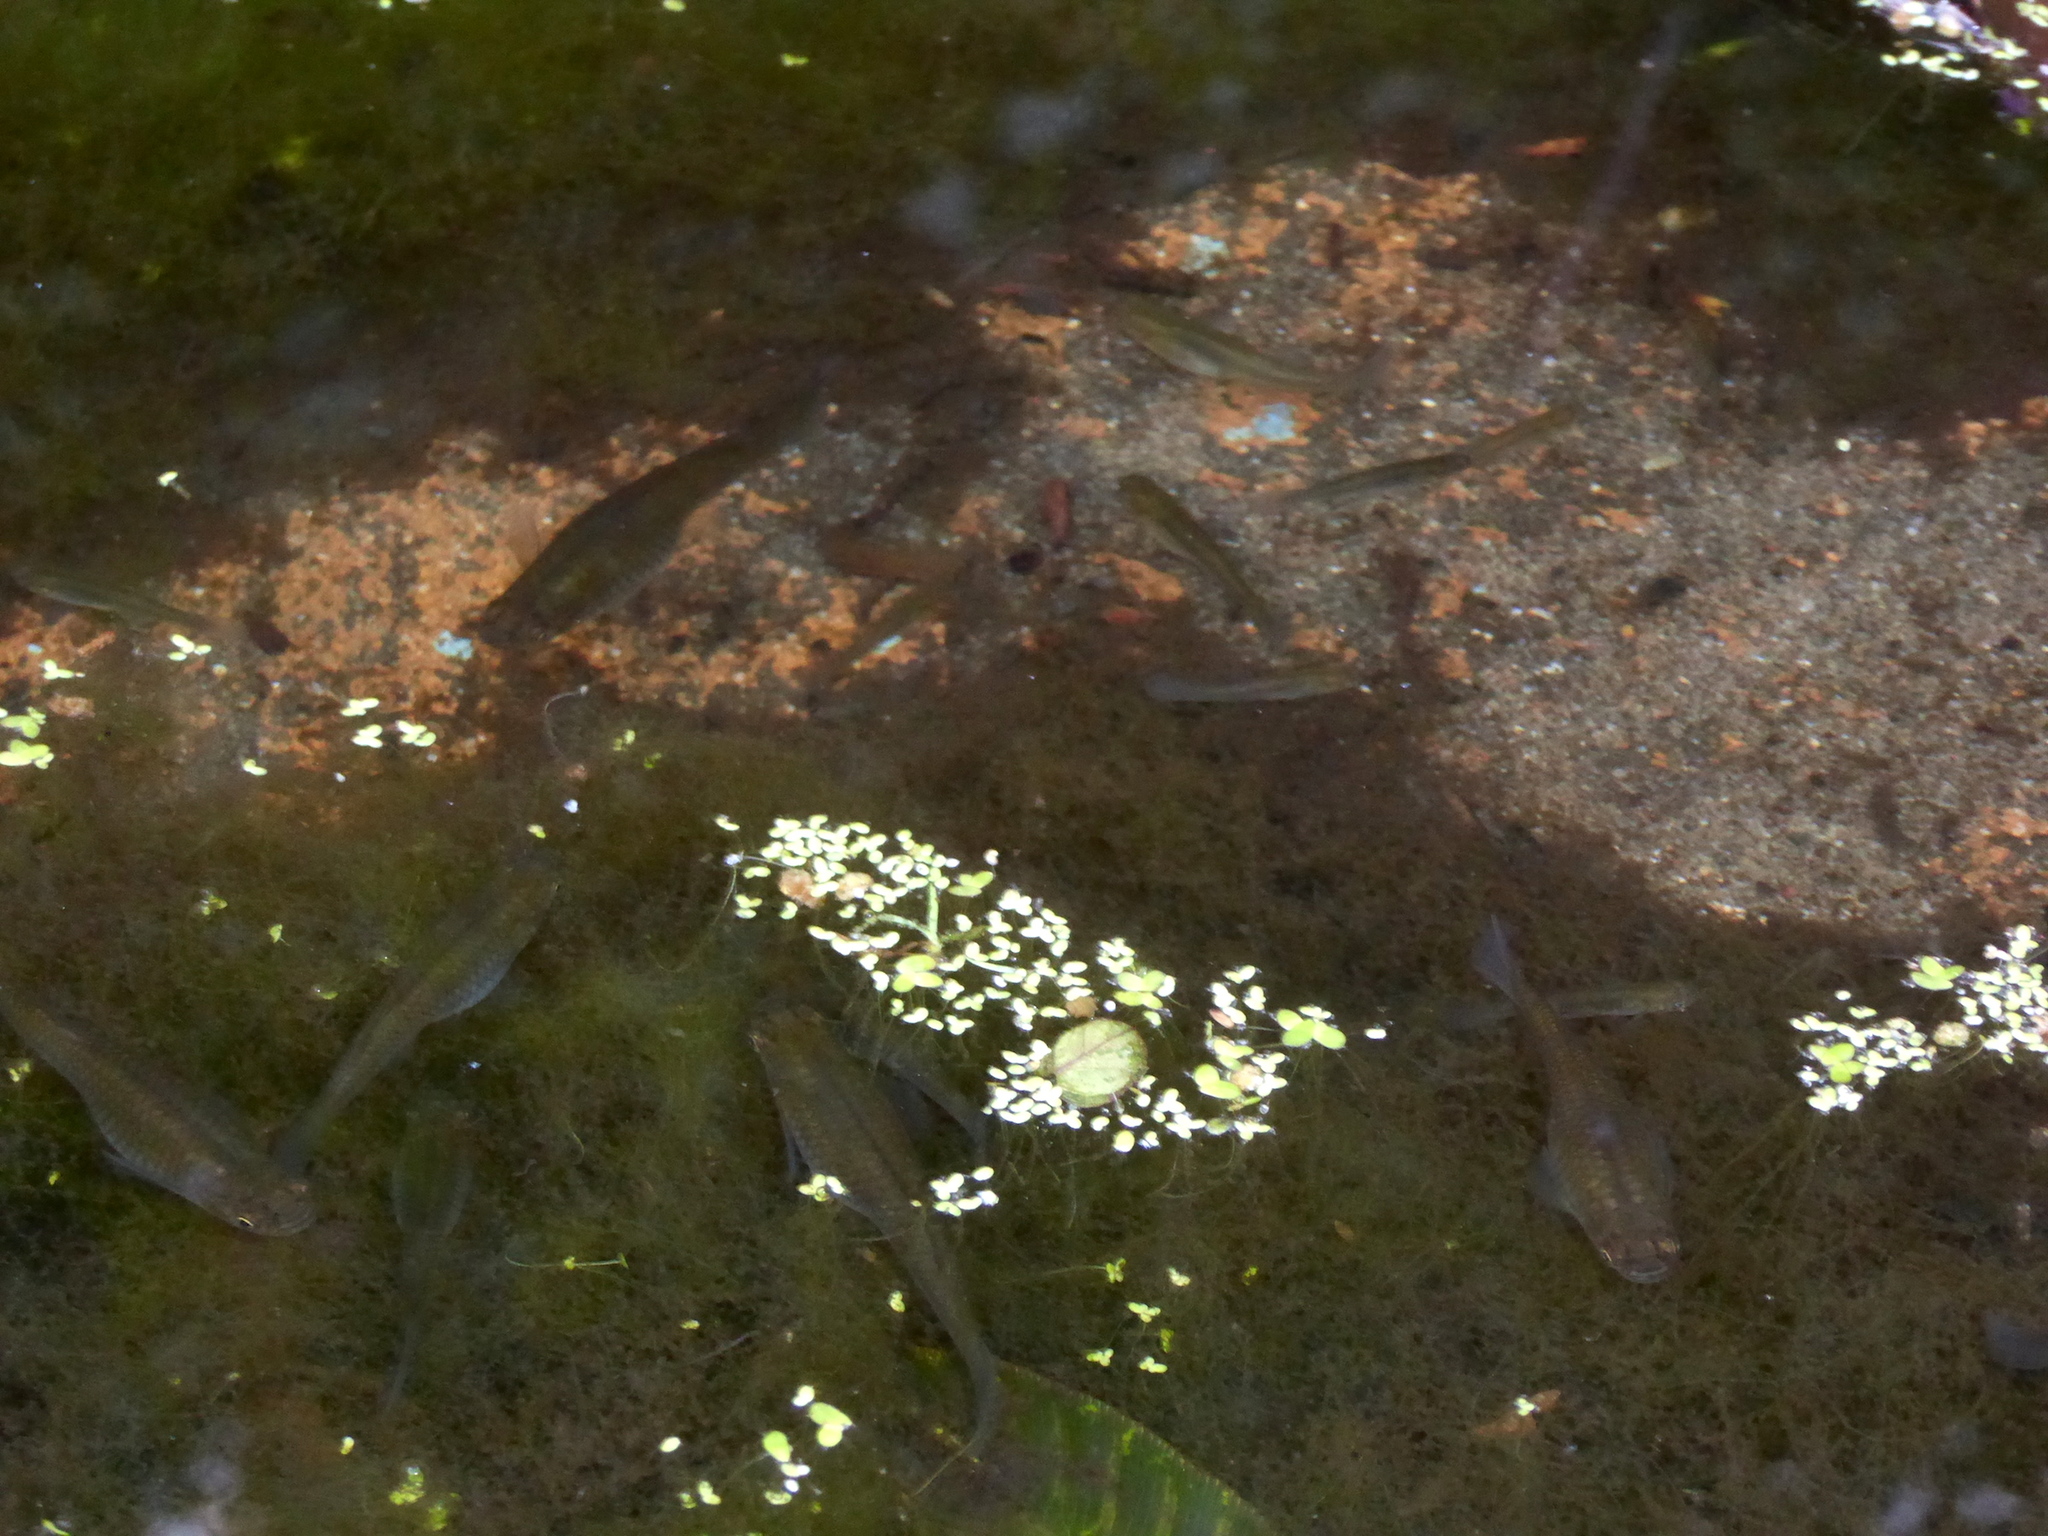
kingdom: Animalia
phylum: Chordata
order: Cyprinodontiformes
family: Poeciliidae
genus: Gambusia
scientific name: Gambusia affinis
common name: Mosquitofish
